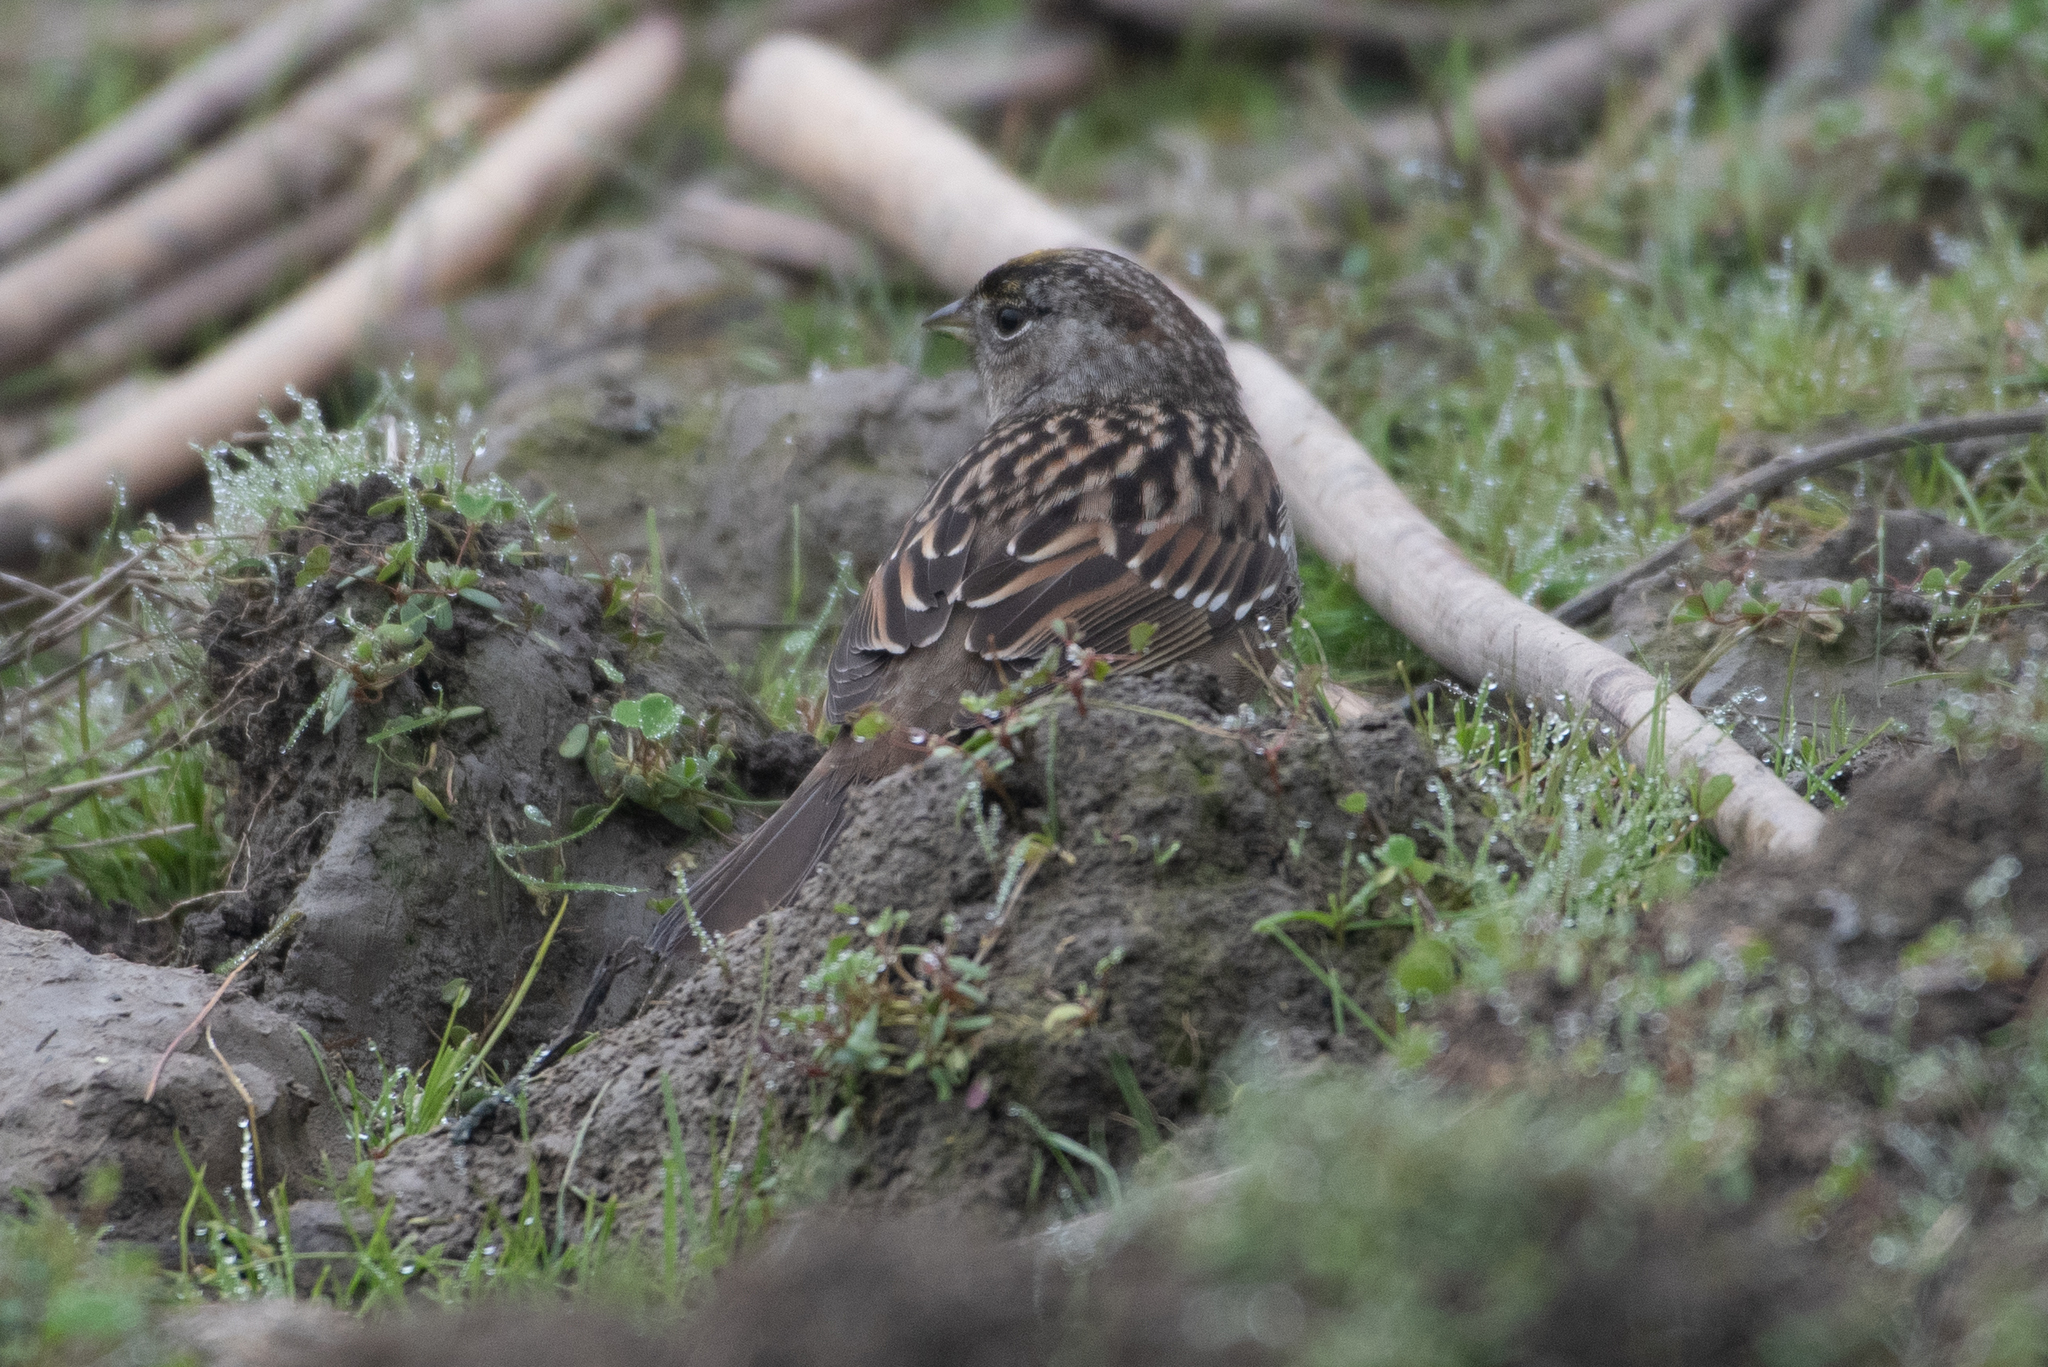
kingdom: Animalia
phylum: Chordata
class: Aves
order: Passeriformes
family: Passerellidae
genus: Zonotrichia
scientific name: Zonotrichia atricapilla
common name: Golden-crowned sparrow
